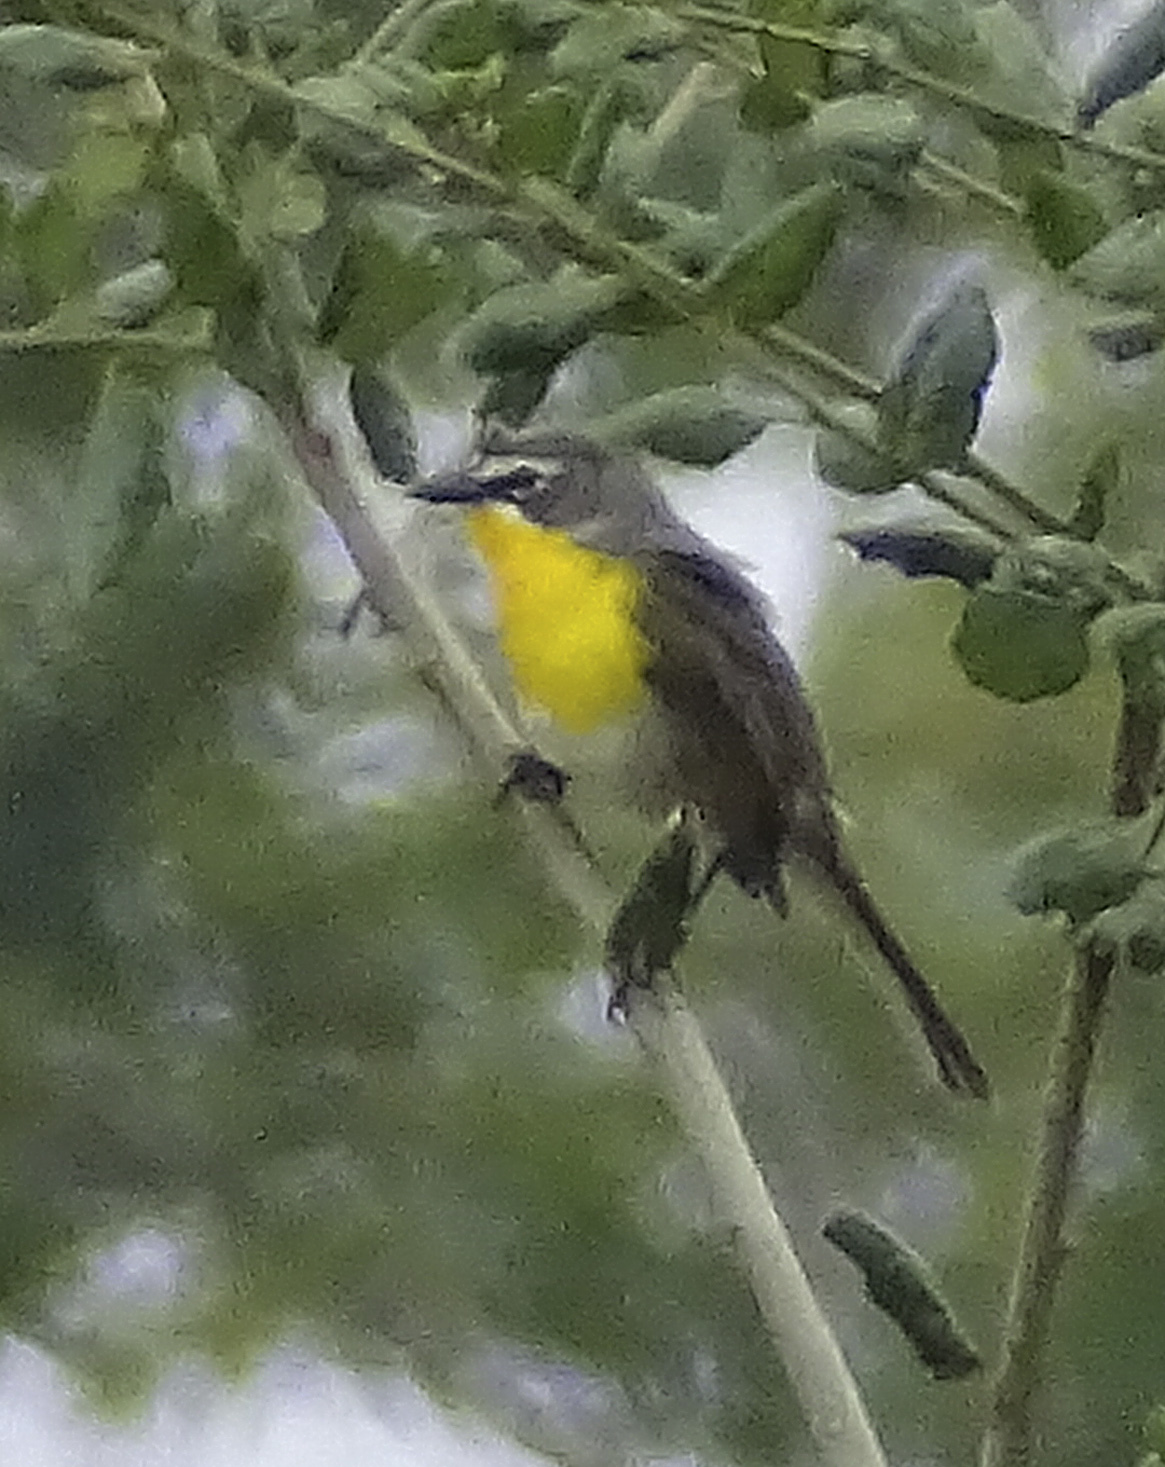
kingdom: Animalia
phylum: Chordata
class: Aves
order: Passeriformes
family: Parulidae
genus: Icteria
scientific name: Icteria virens
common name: Yellow-breasted chat
